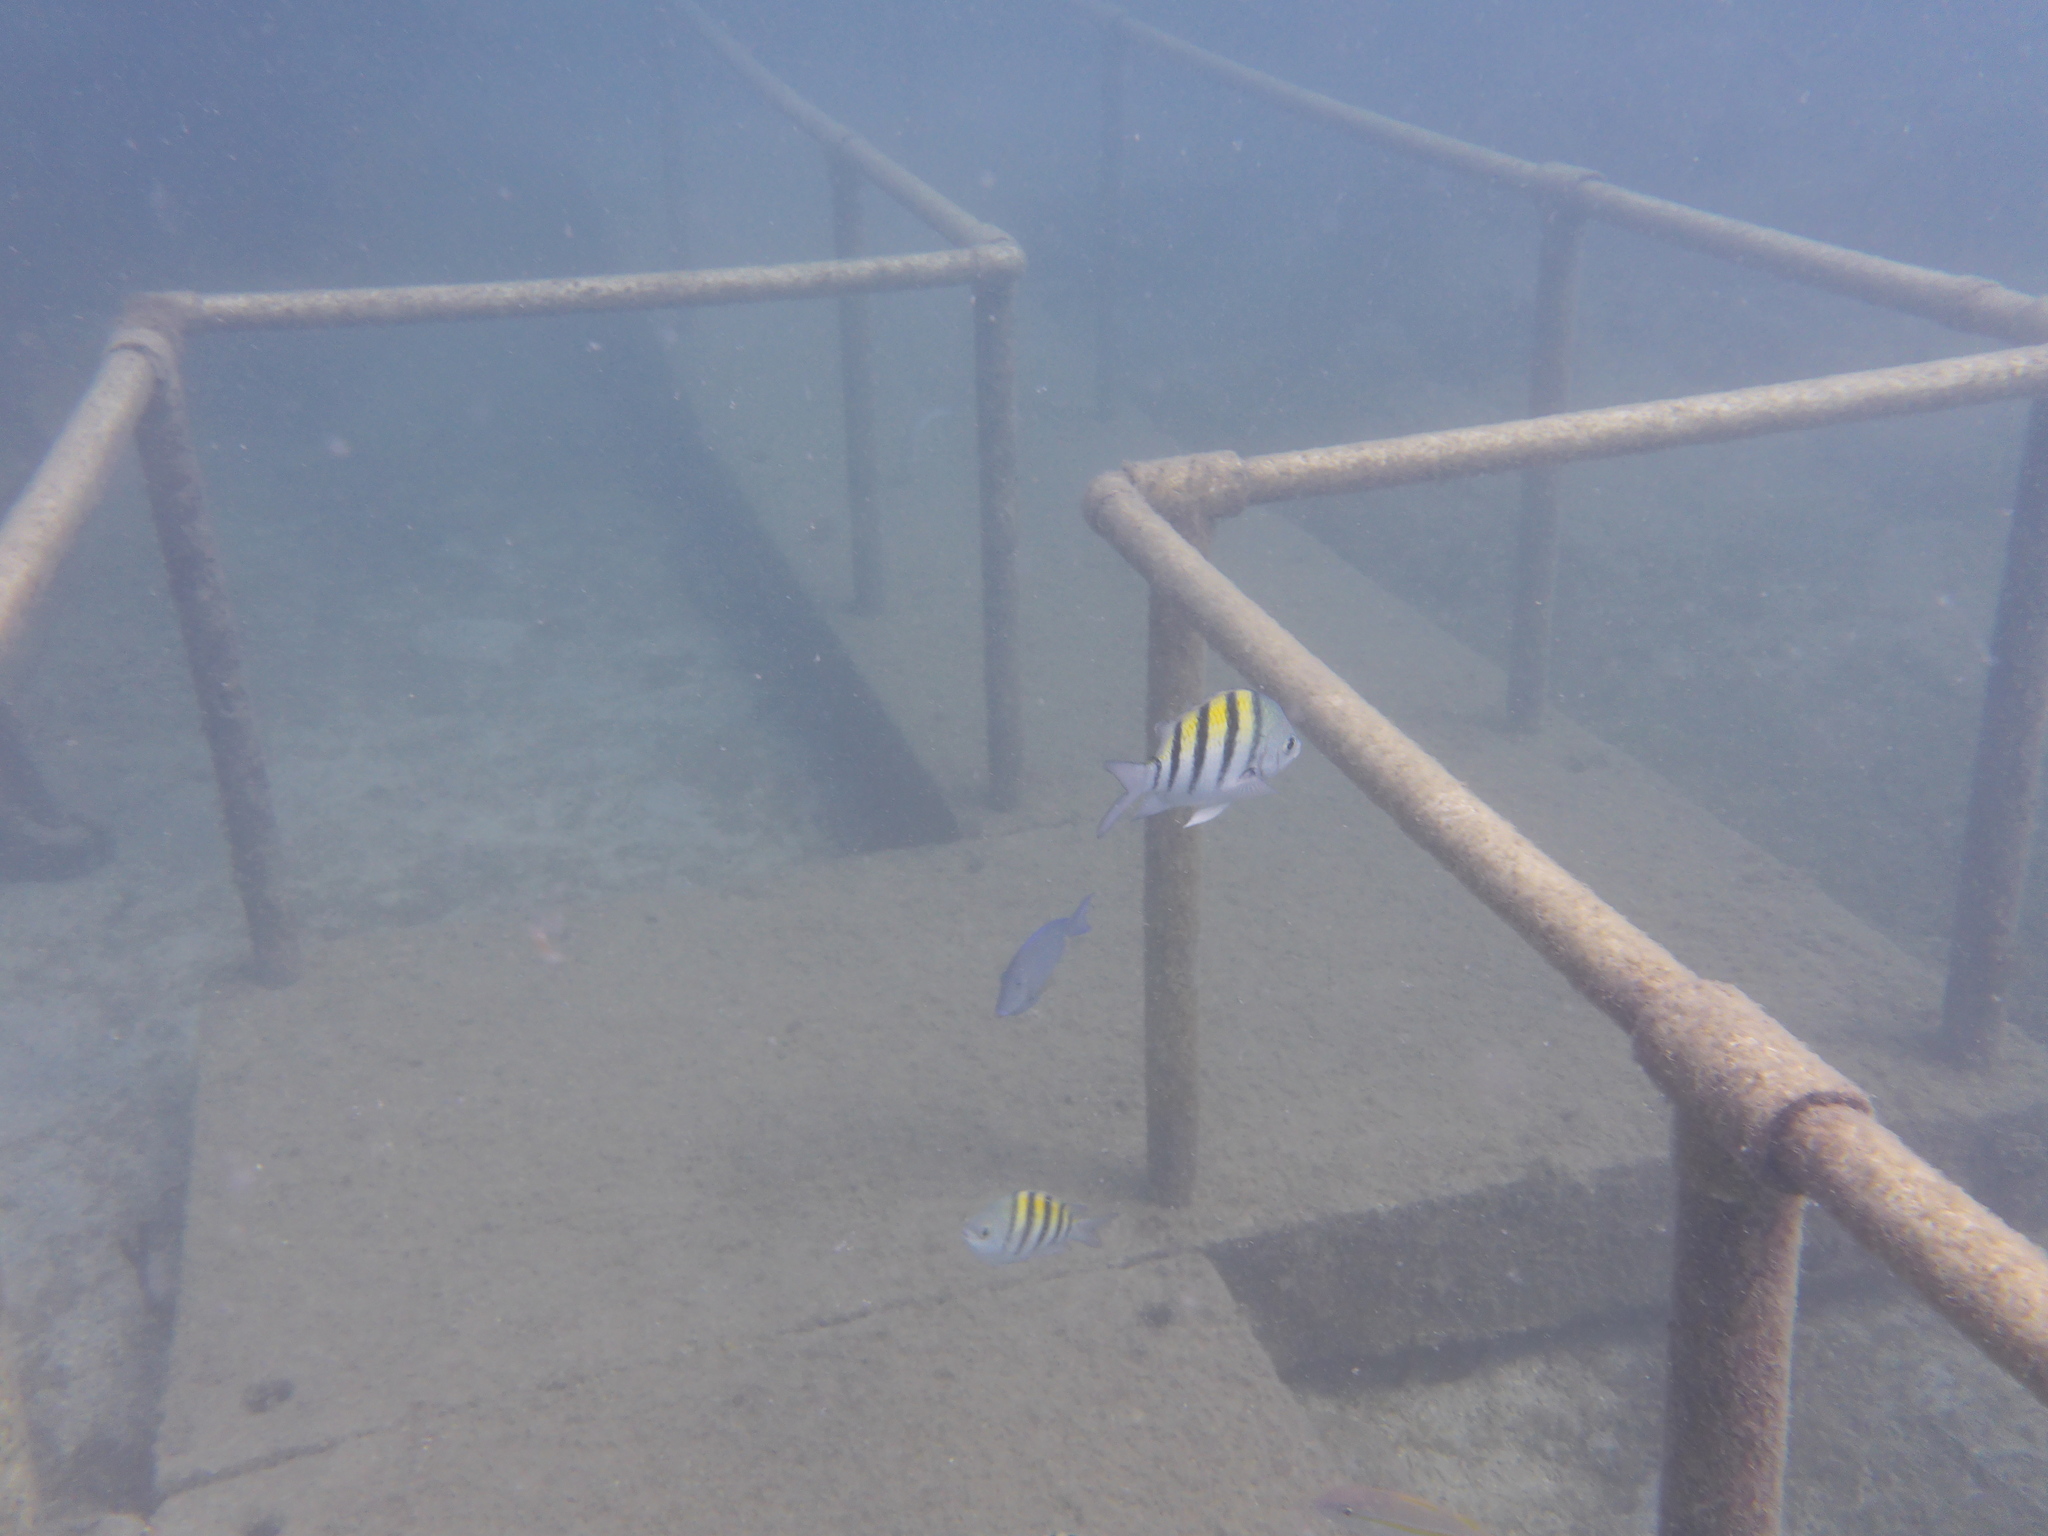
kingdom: Animalia
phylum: Chordata
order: Perciformes
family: Pomacentridae
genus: Abudefduf
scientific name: Abudefduf saxatilis
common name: Sergeant major
